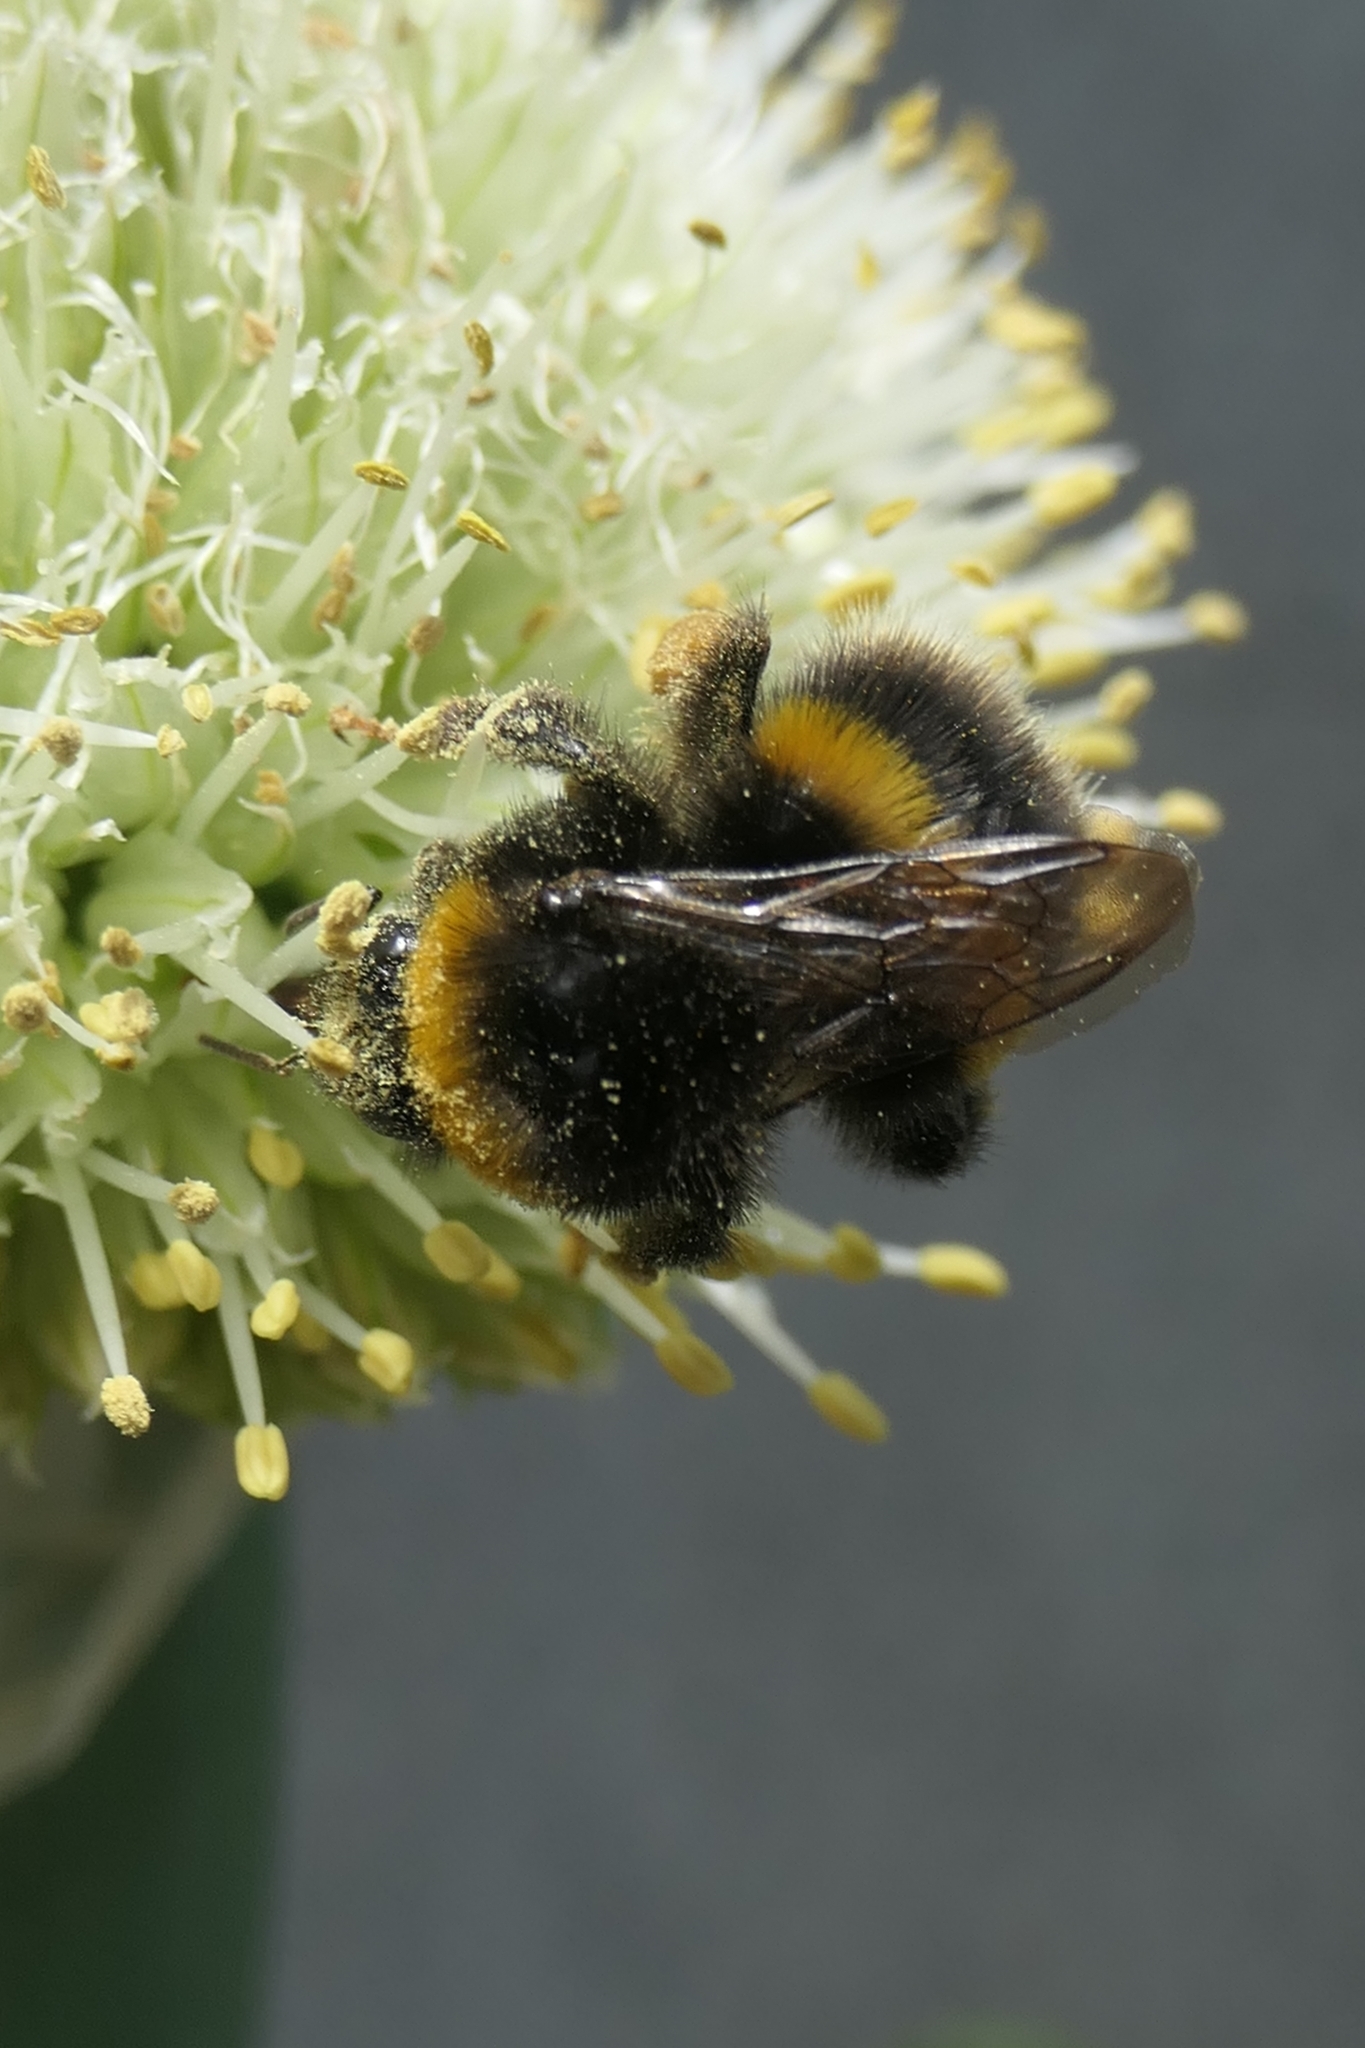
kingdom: Animalia
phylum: Arthropoda
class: Insecta
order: Hymenoptera
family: Apidae
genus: Bombus
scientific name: Bombus terrestris
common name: Buff-tailed bumblebee
